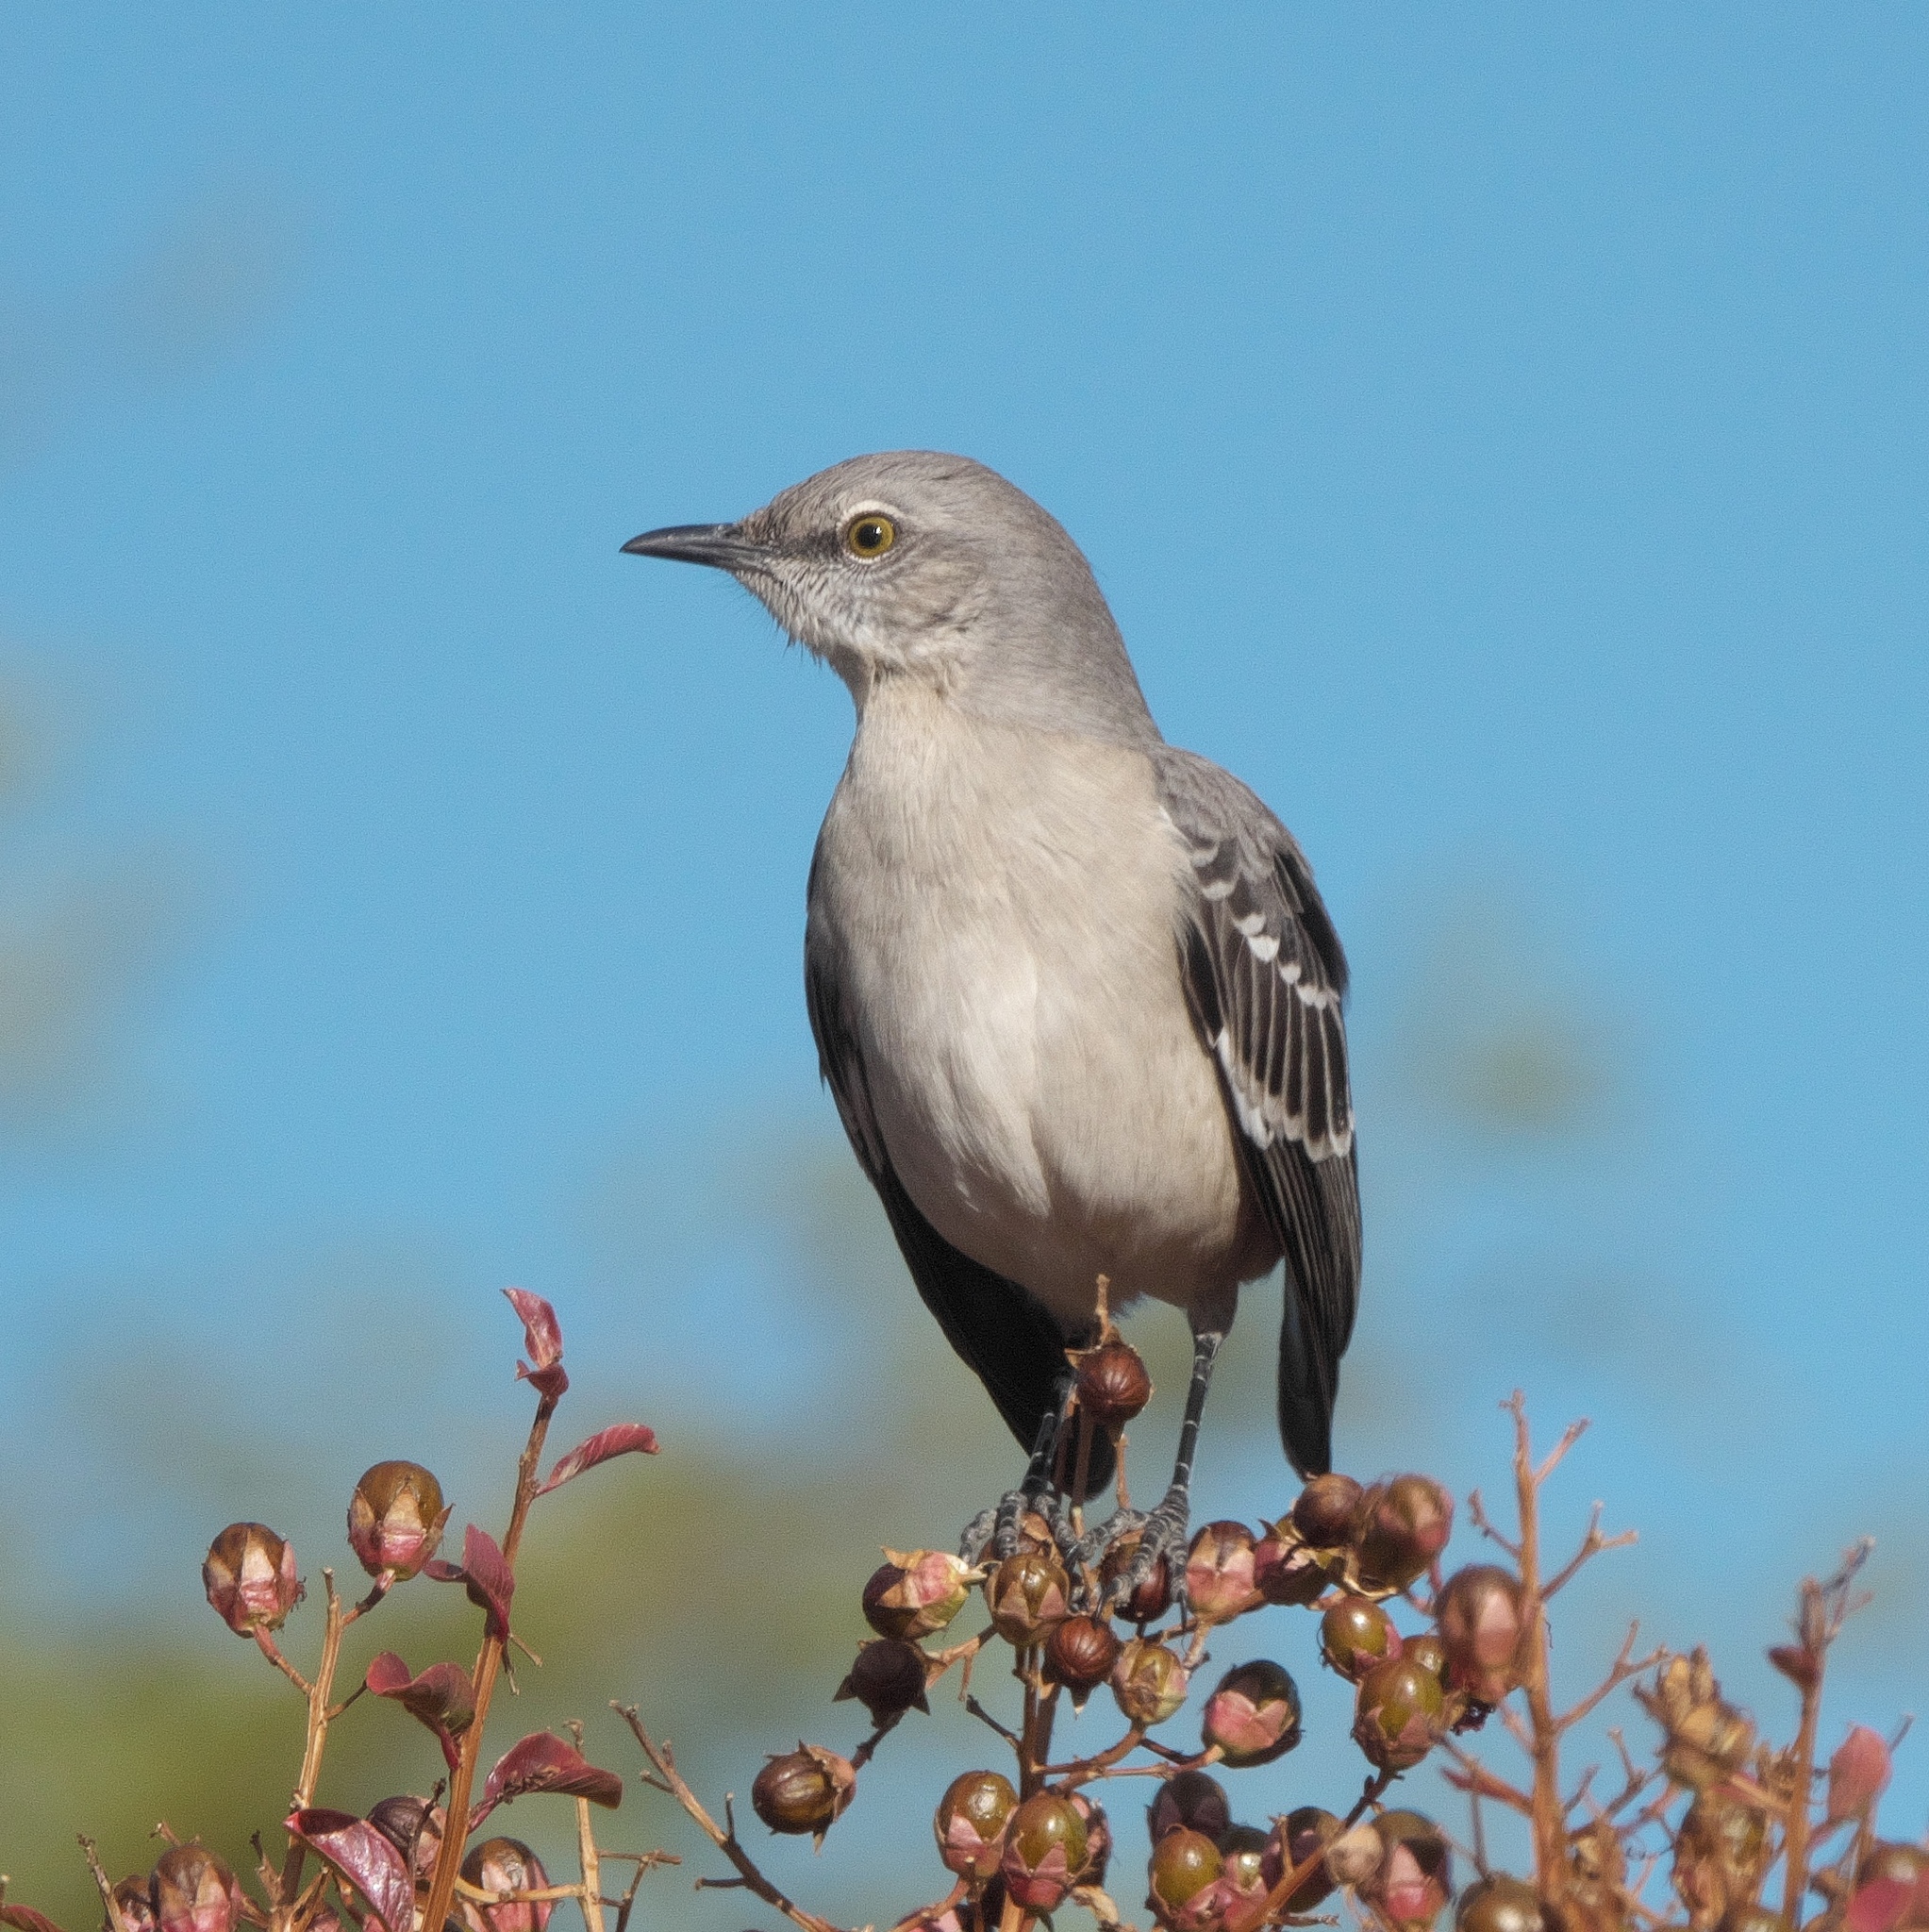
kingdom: Animalia
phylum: Chordata
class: Aves
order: Passeriformes
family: Mimidae
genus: Mimus
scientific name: Mimus polyglottos
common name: Northern mockingbird
